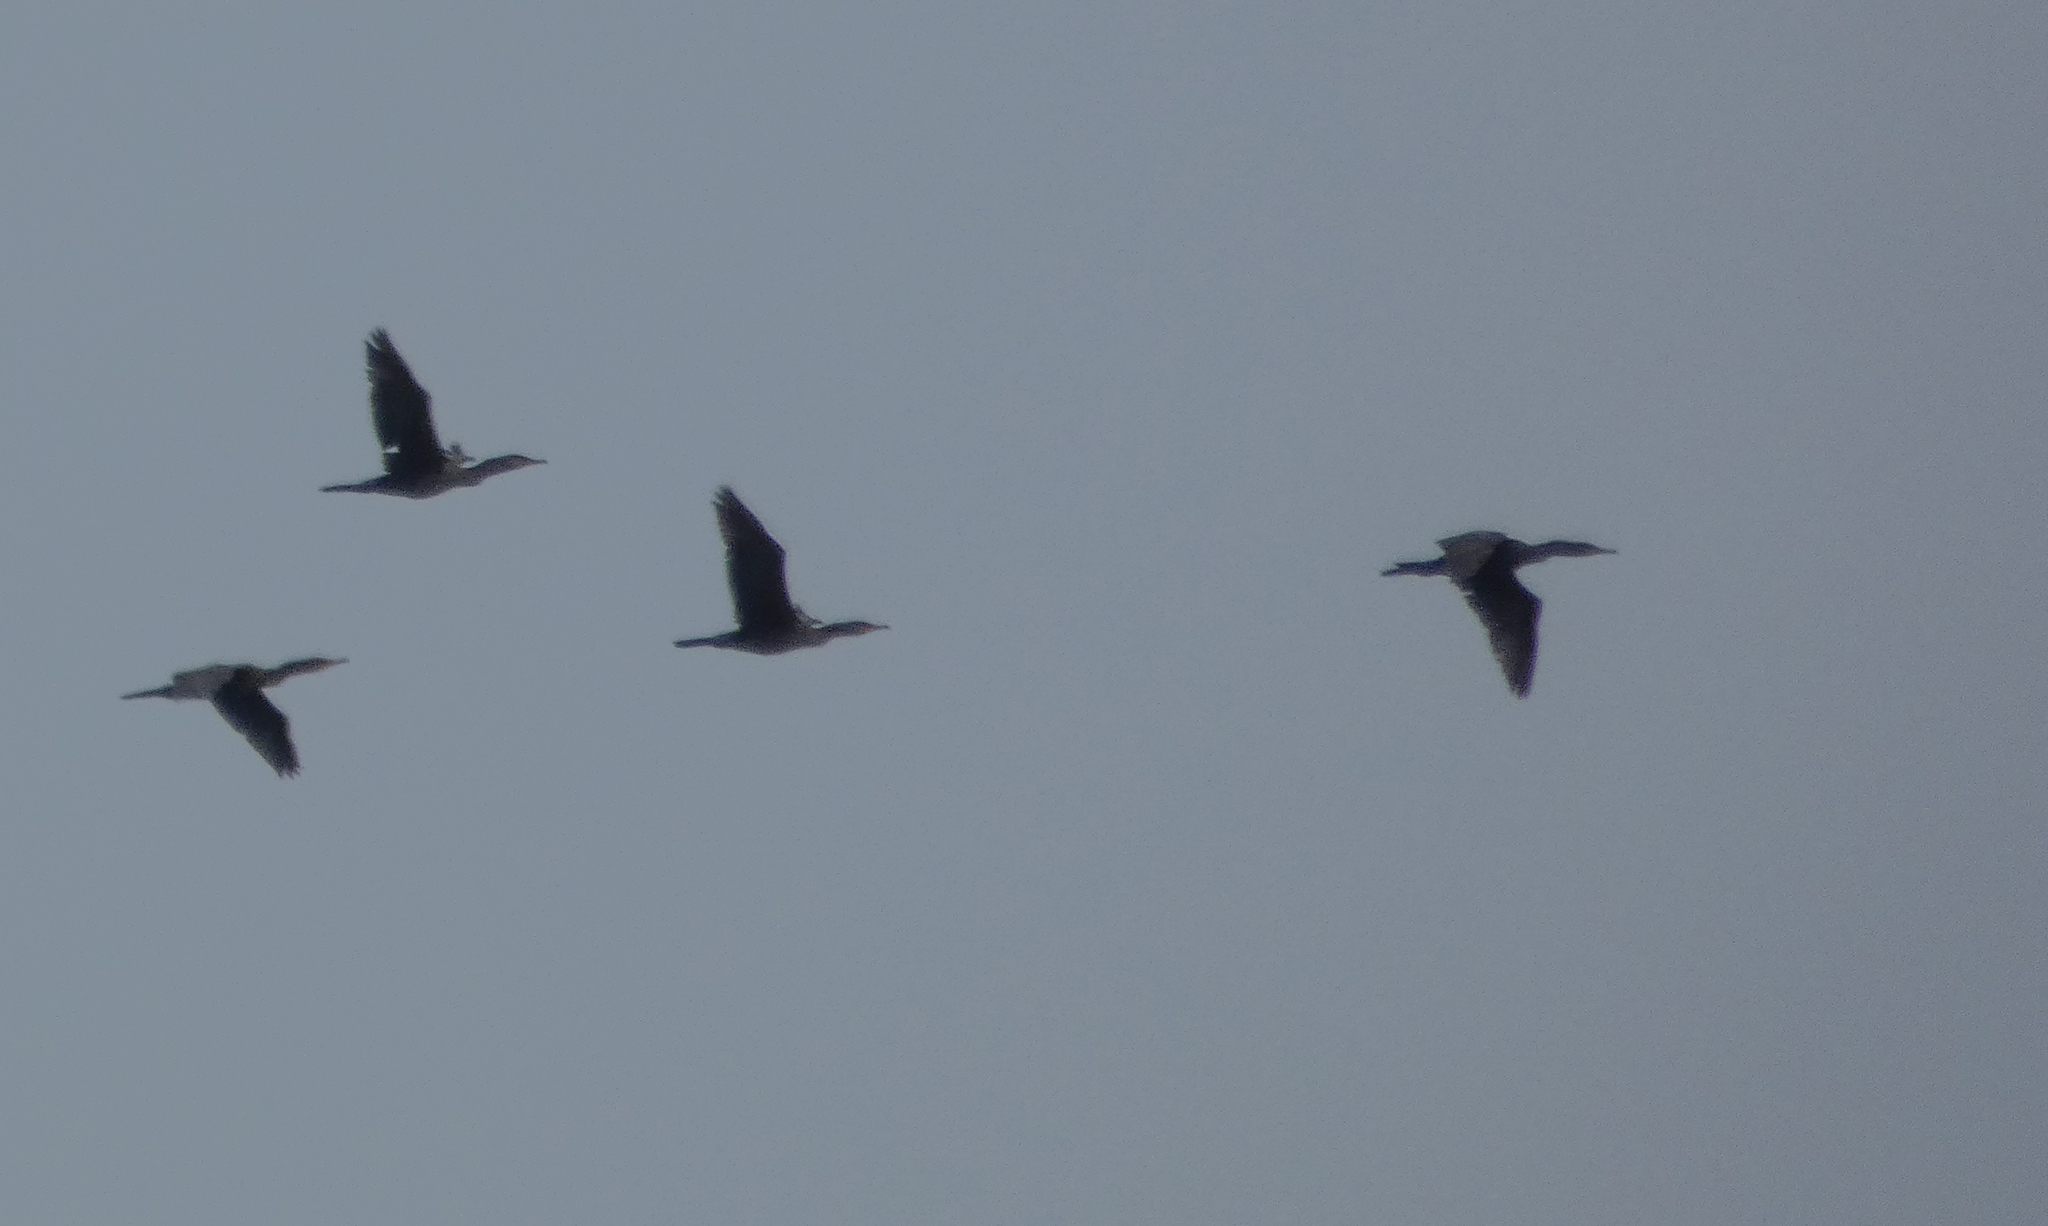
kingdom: Animalia
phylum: Chordata
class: Aves
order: Suliformes
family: Phalacrocoracidae
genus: Phalacrocorax
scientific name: Phalacrocorax auritus
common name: Double-crested cormorant
